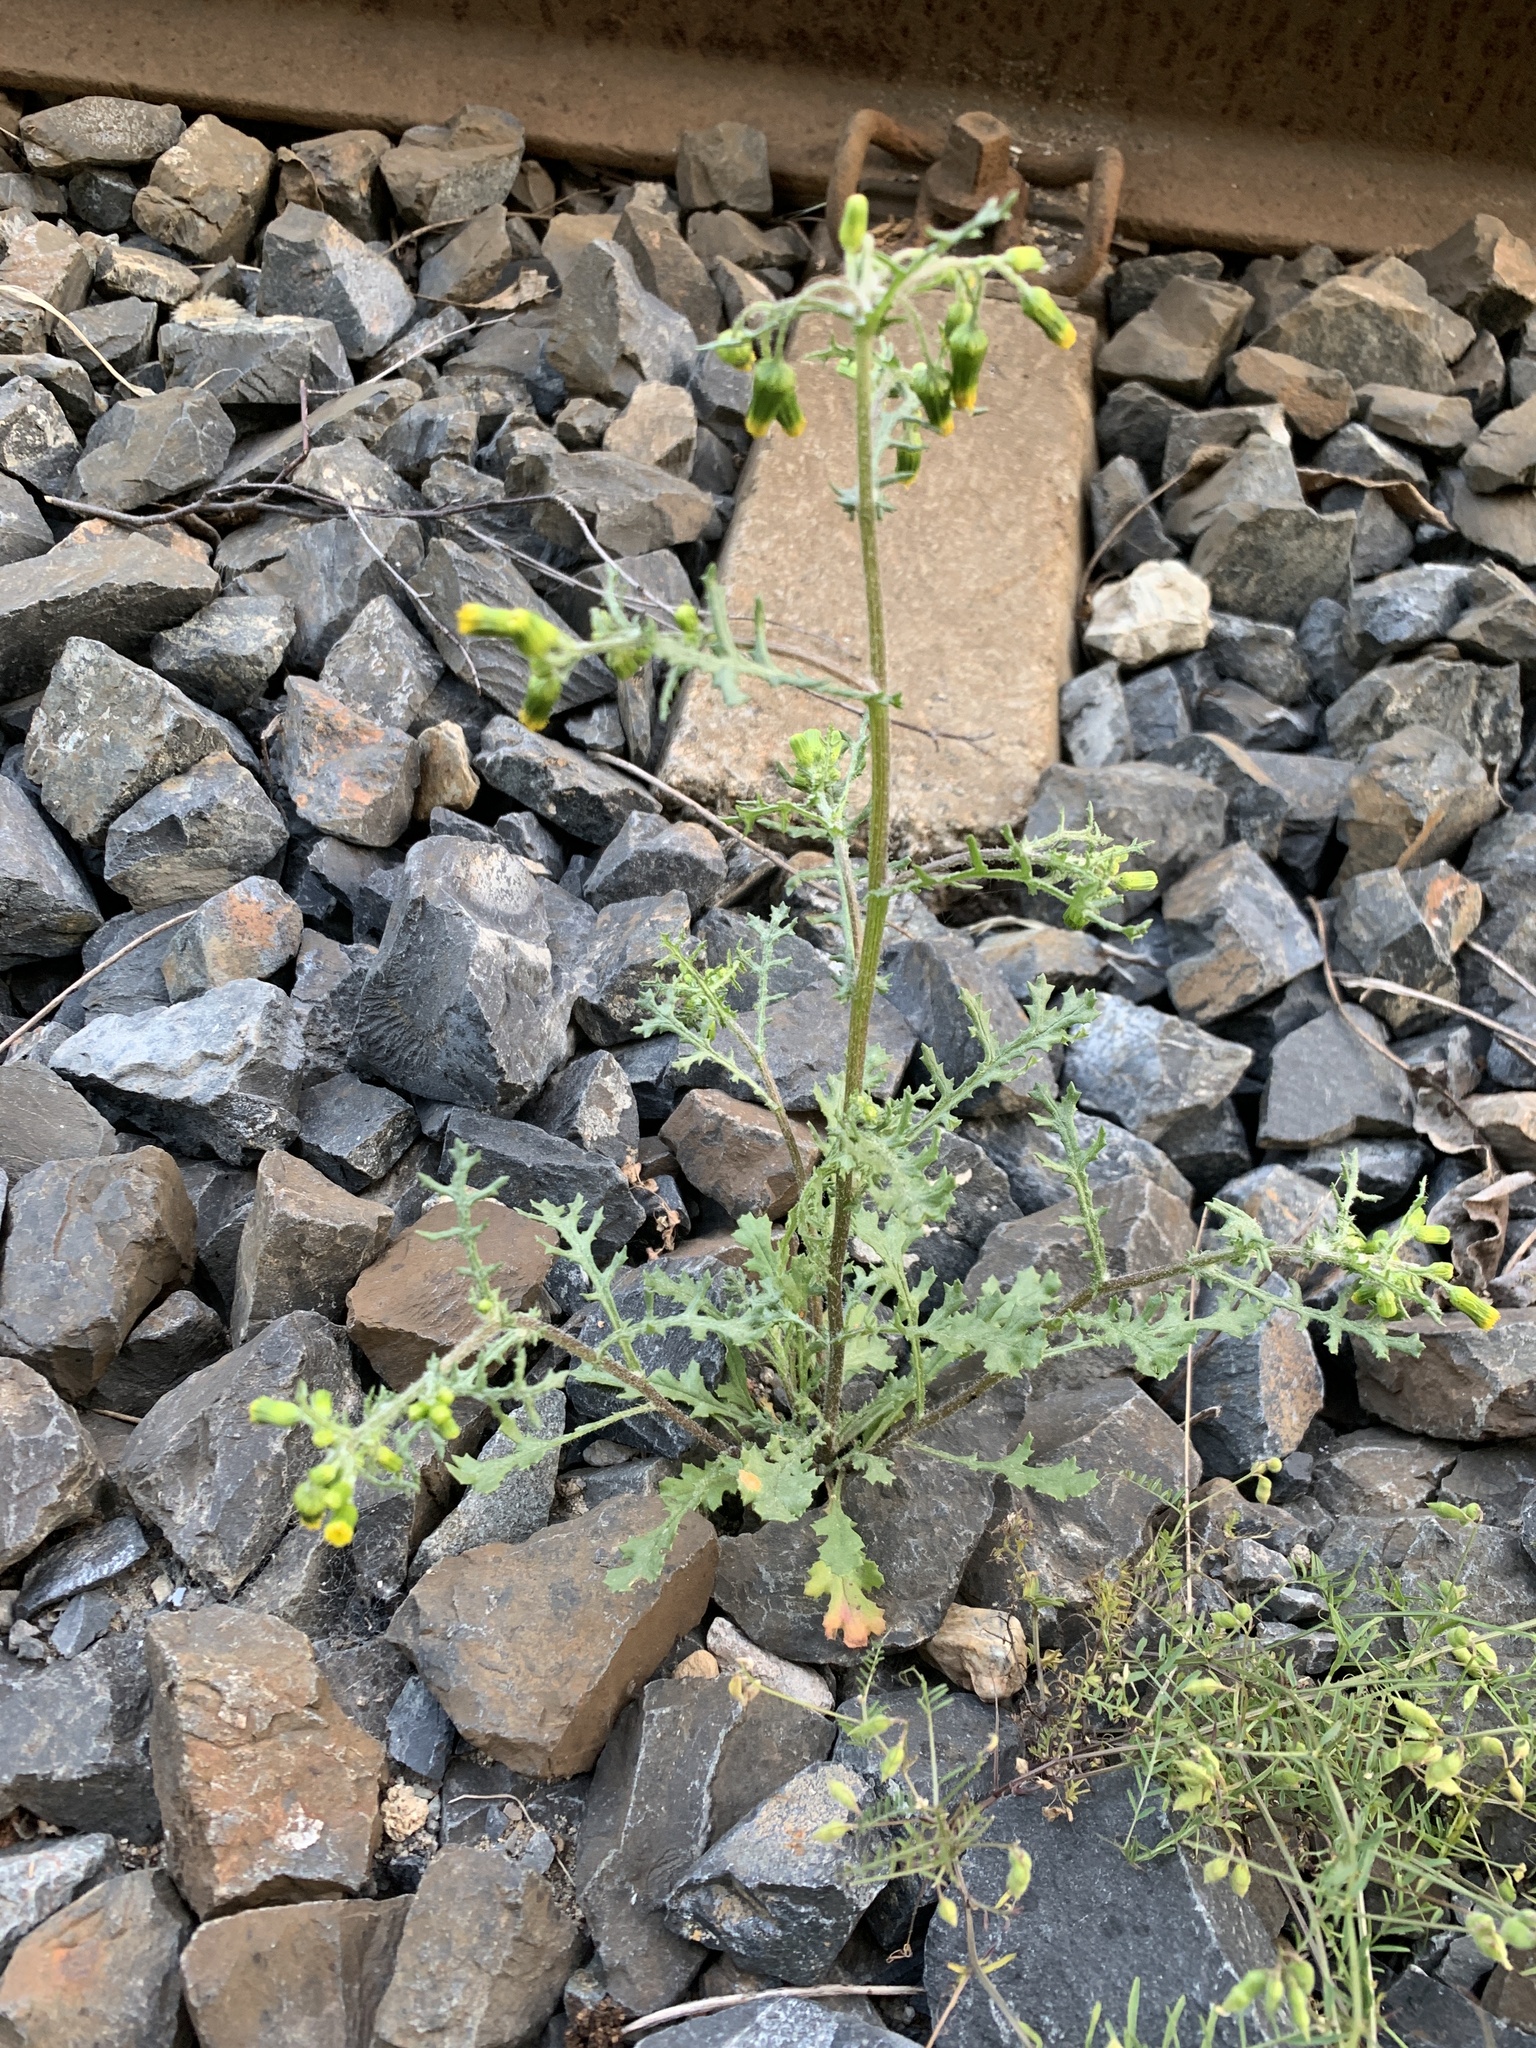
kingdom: Plantae
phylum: Tracheophyta
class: Magnoliopsida
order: Asterales
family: Asteraceae
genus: Senecio
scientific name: Senecio vulgaris
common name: Old-man-in-the-spring
